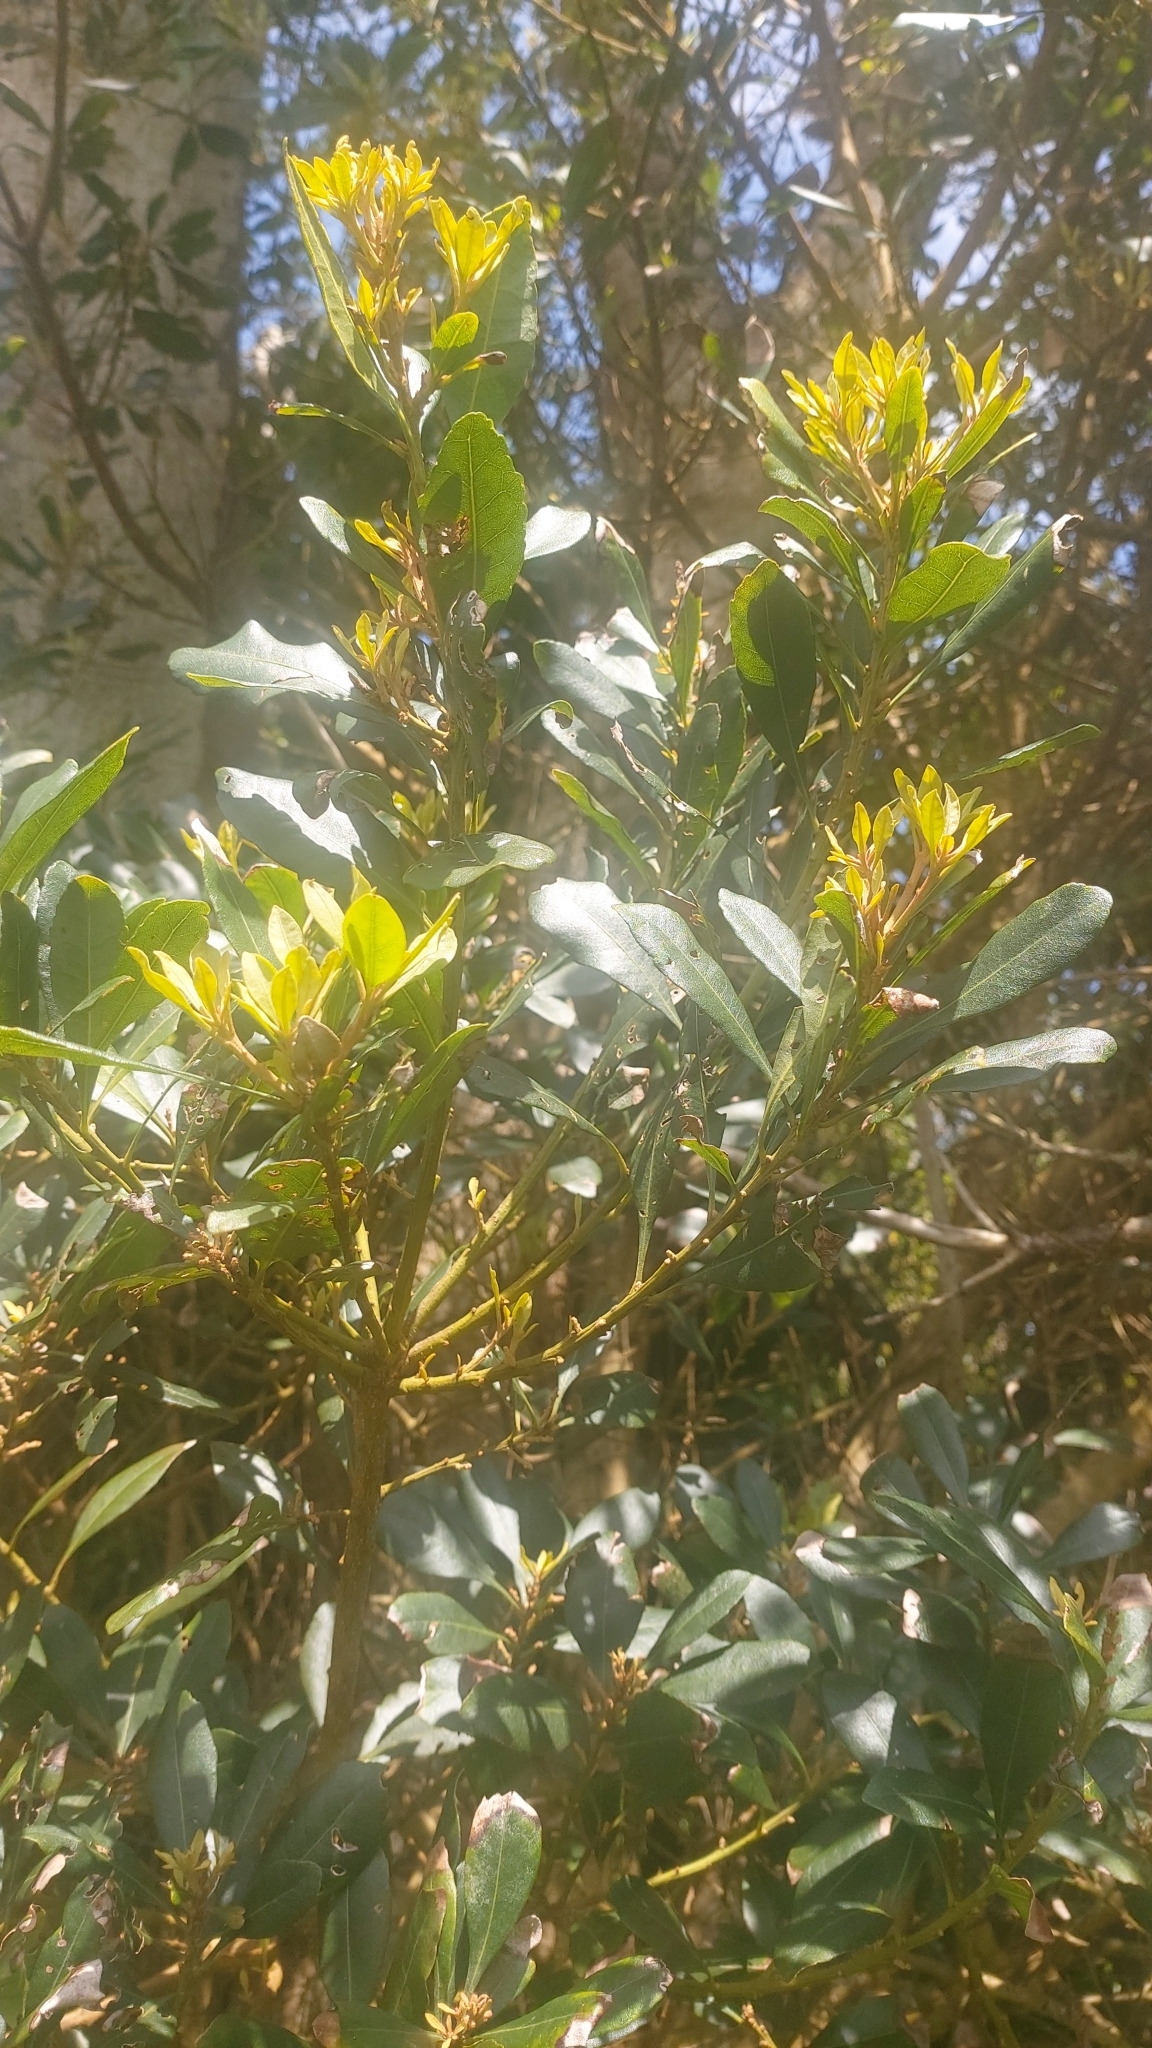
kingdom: Plantae
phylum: Tracheophyta
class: Magnoliopsida
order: Fagales
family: Myricaceae
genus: Morella
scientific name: Morella faya
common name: Firetree
